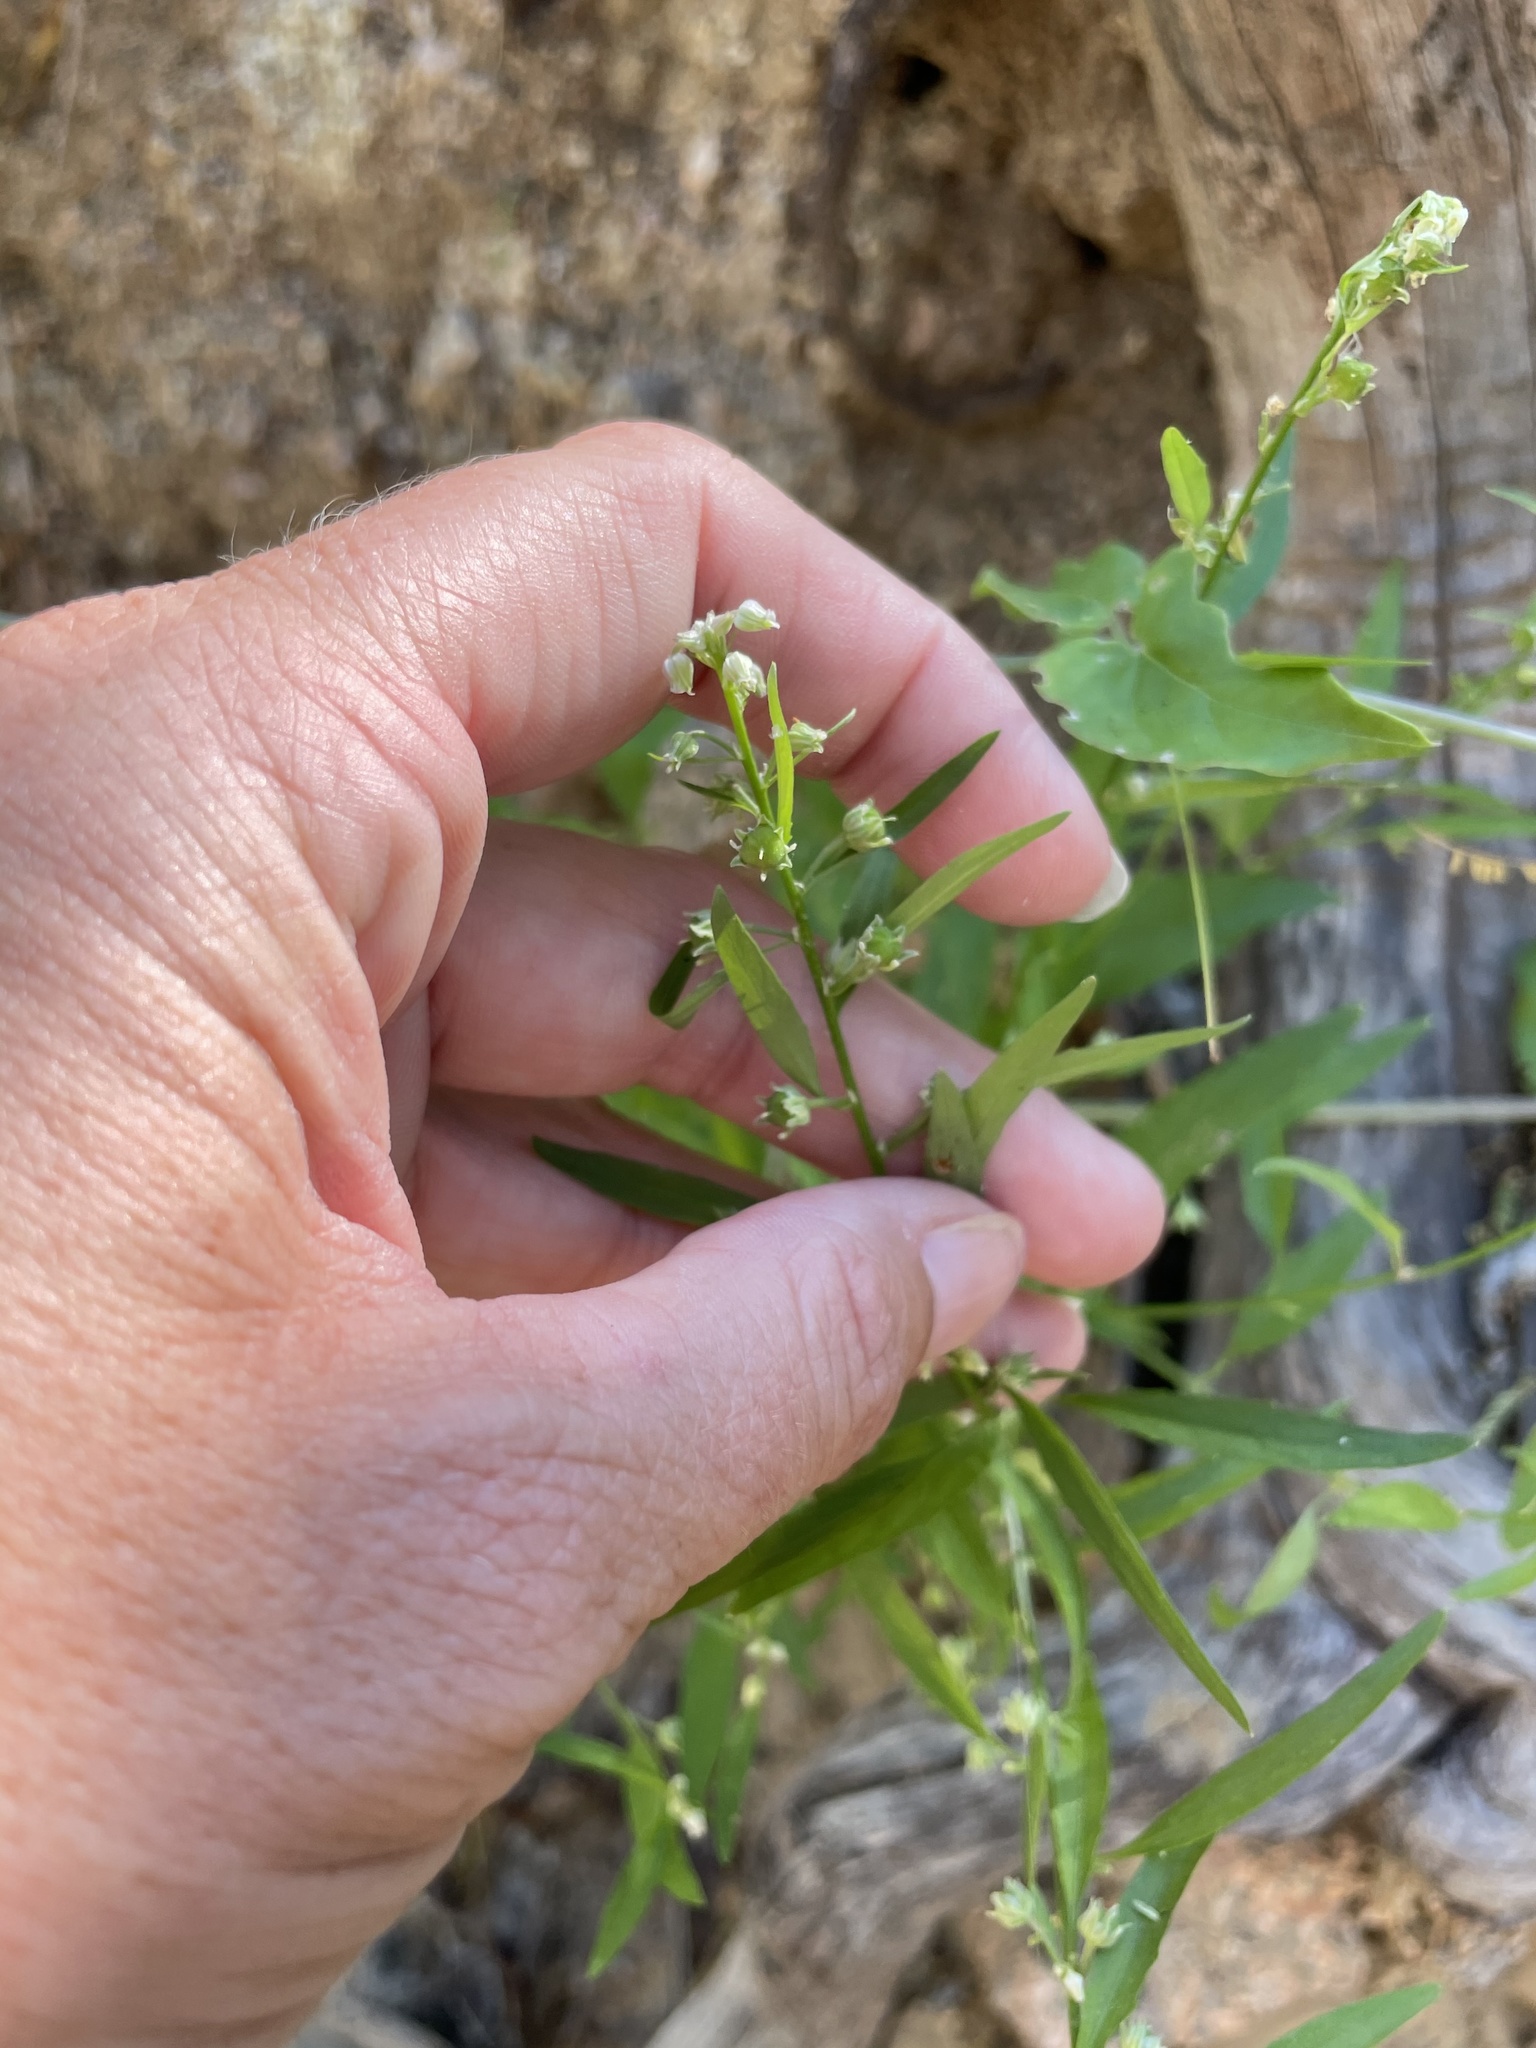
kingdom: Plantae
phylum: Tracheophyta
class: Magnoliopsida
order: Malpighiales
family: Violaceae
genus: Hybanthus
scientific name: Hybanthus fruticulosus
